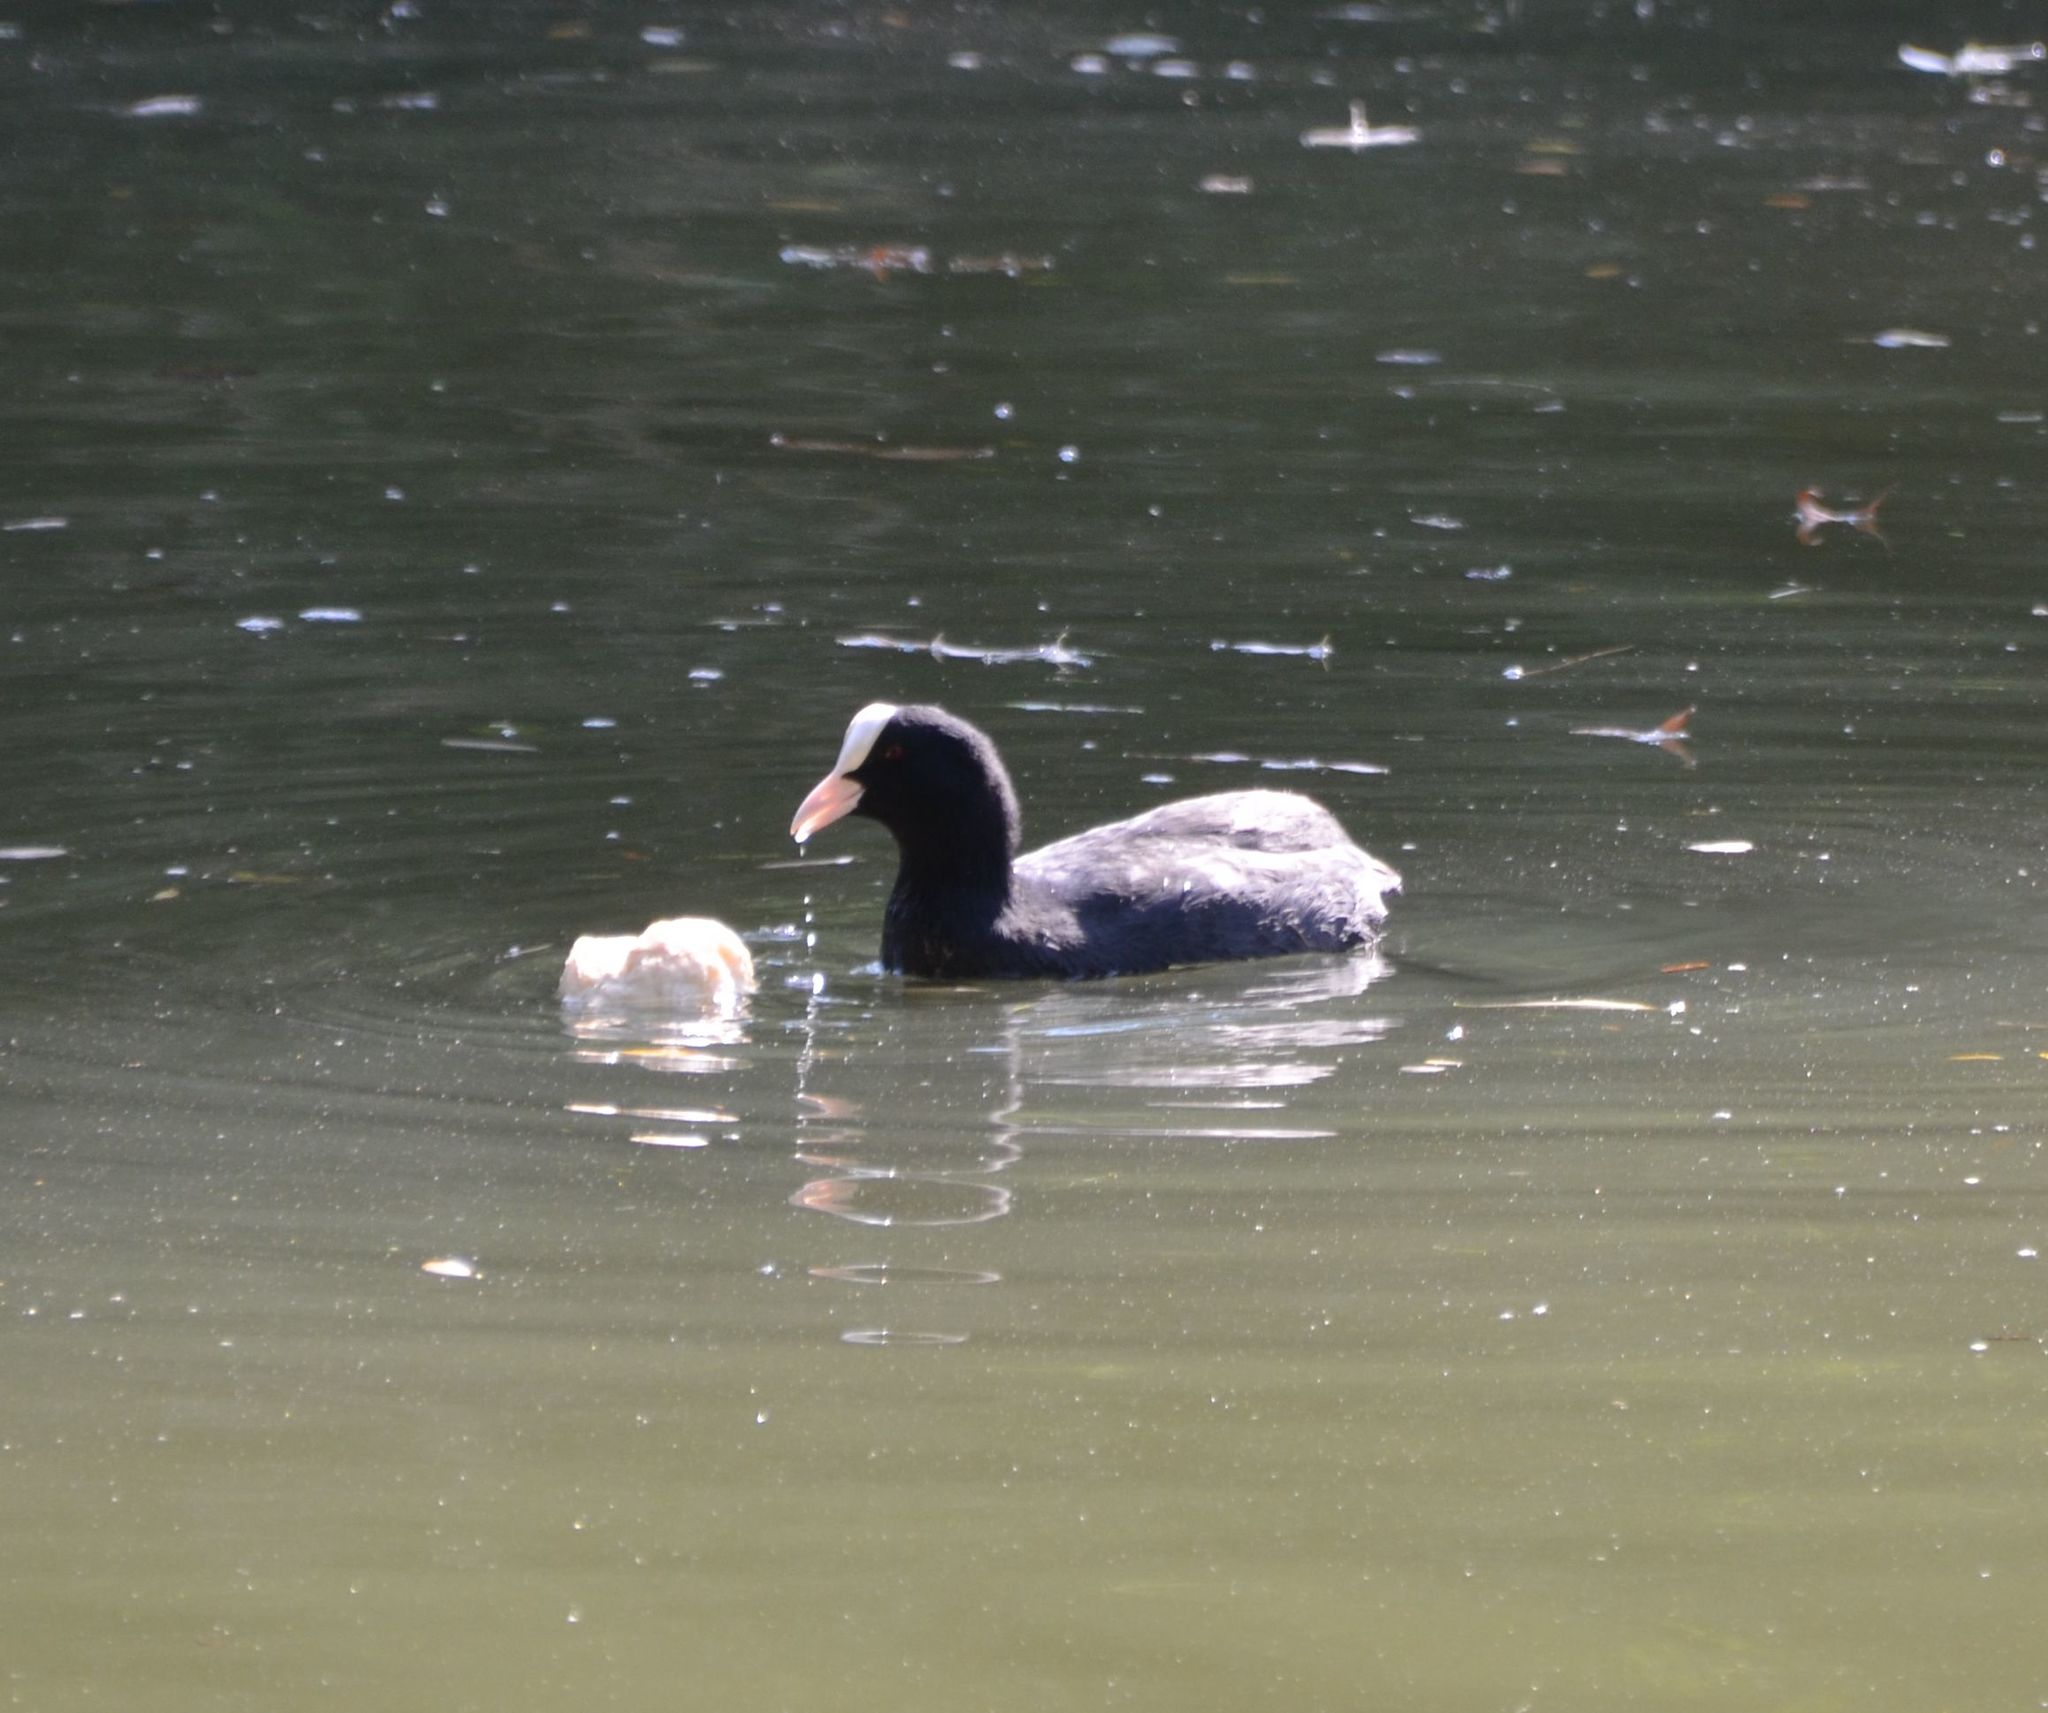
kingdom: Animalia
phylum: Chordata
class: Aves
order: Gruiformes
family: Rallidae
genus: Fulica
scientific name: Fulica atra
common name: Eurasian coot
